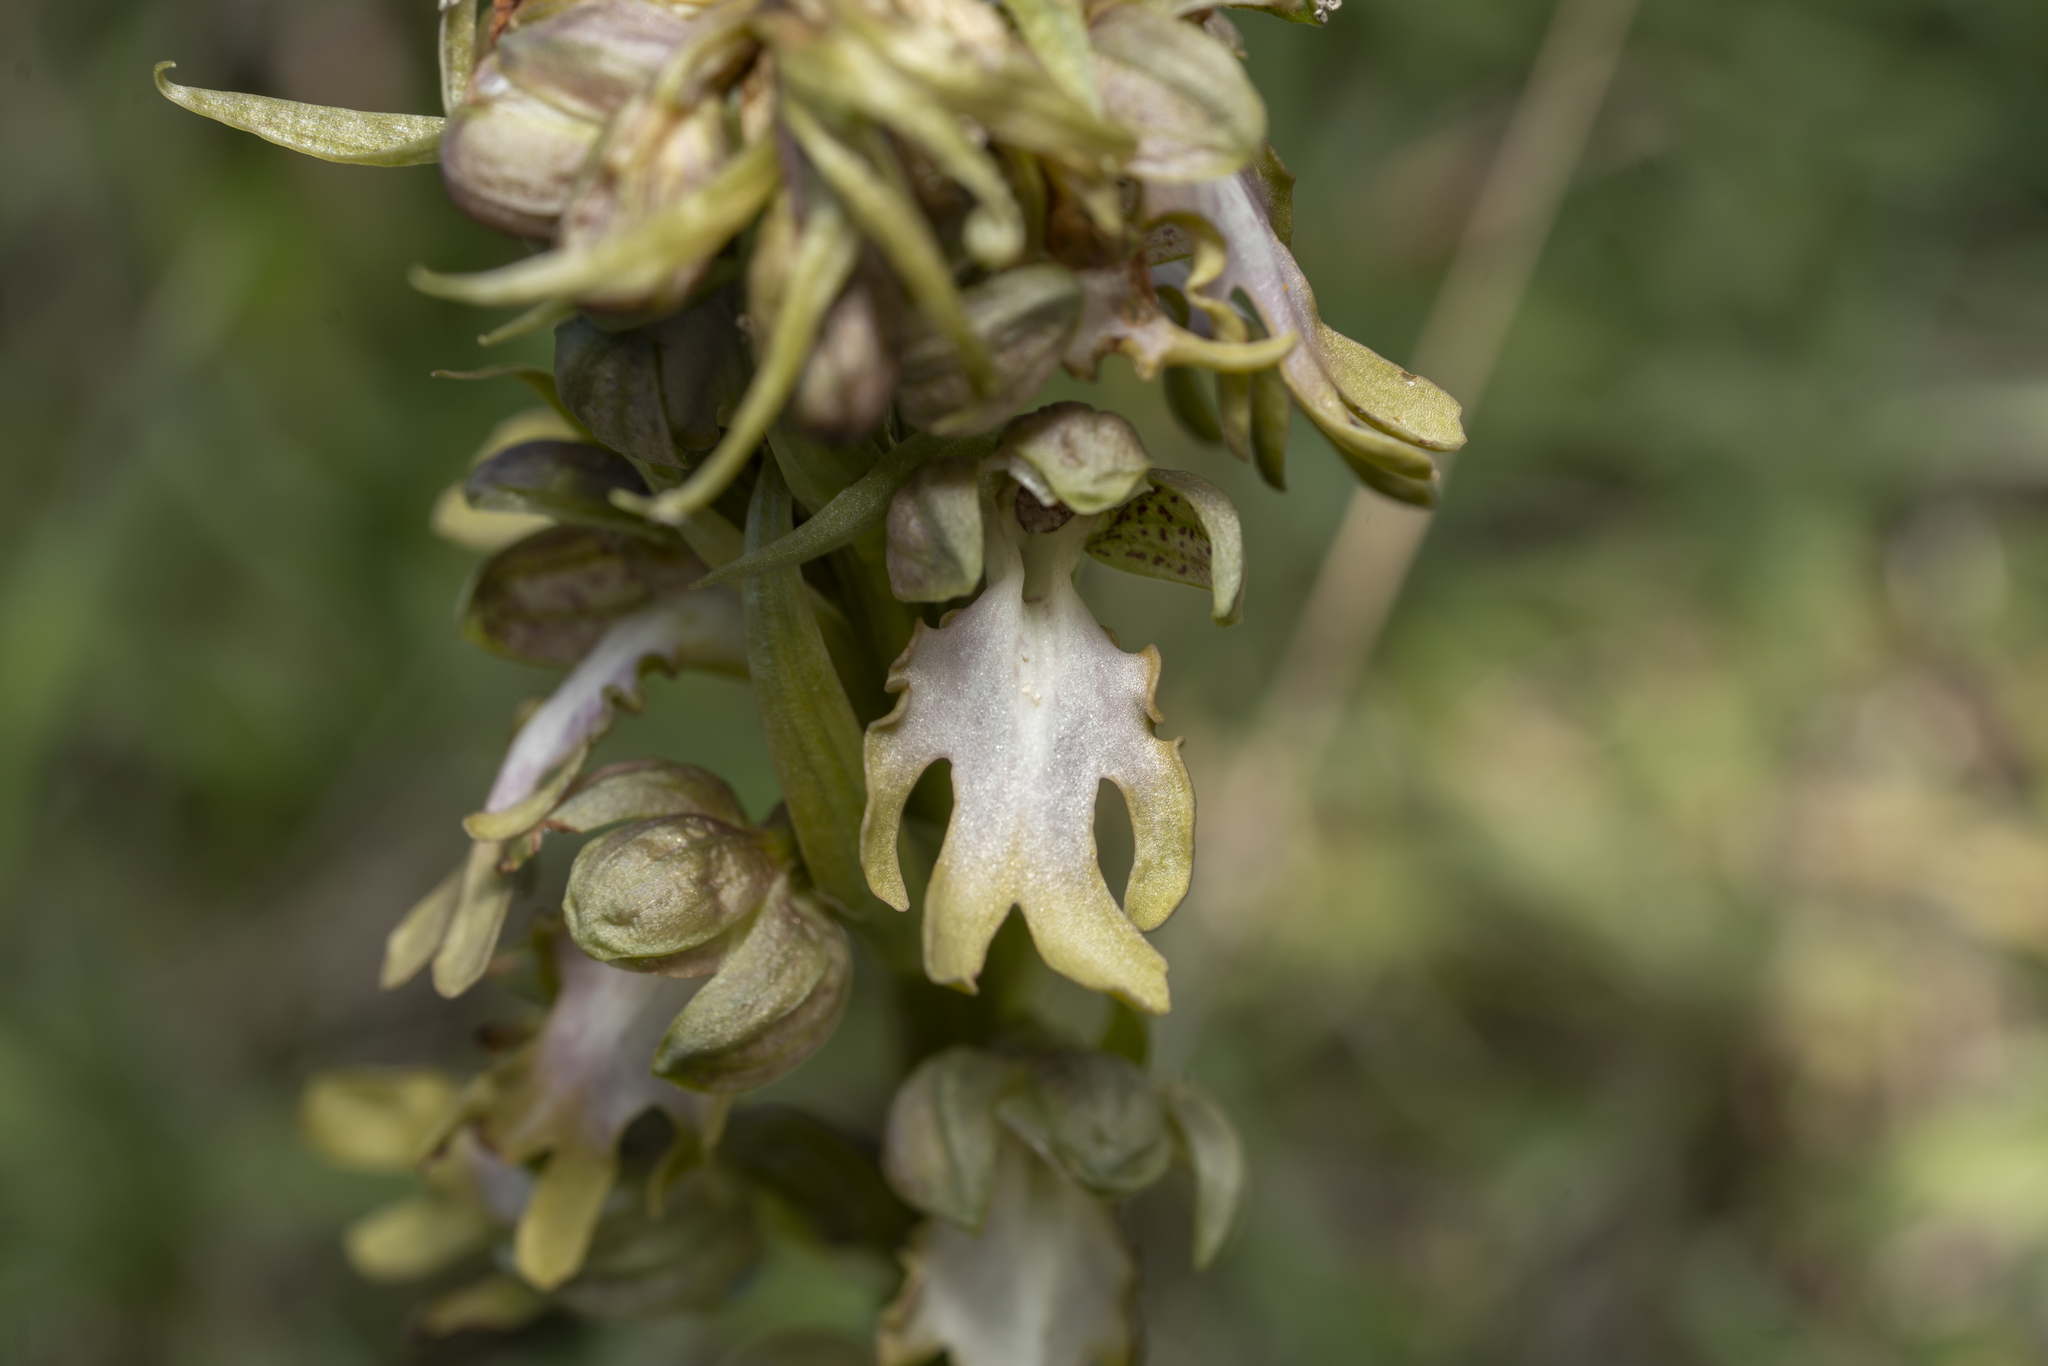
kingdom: Plantae
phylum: Tracheophyta
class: Liliopsida
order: Asparagales
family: Orchidaceae
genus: Himantoglossum
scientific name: Himantoglossum robertianum
